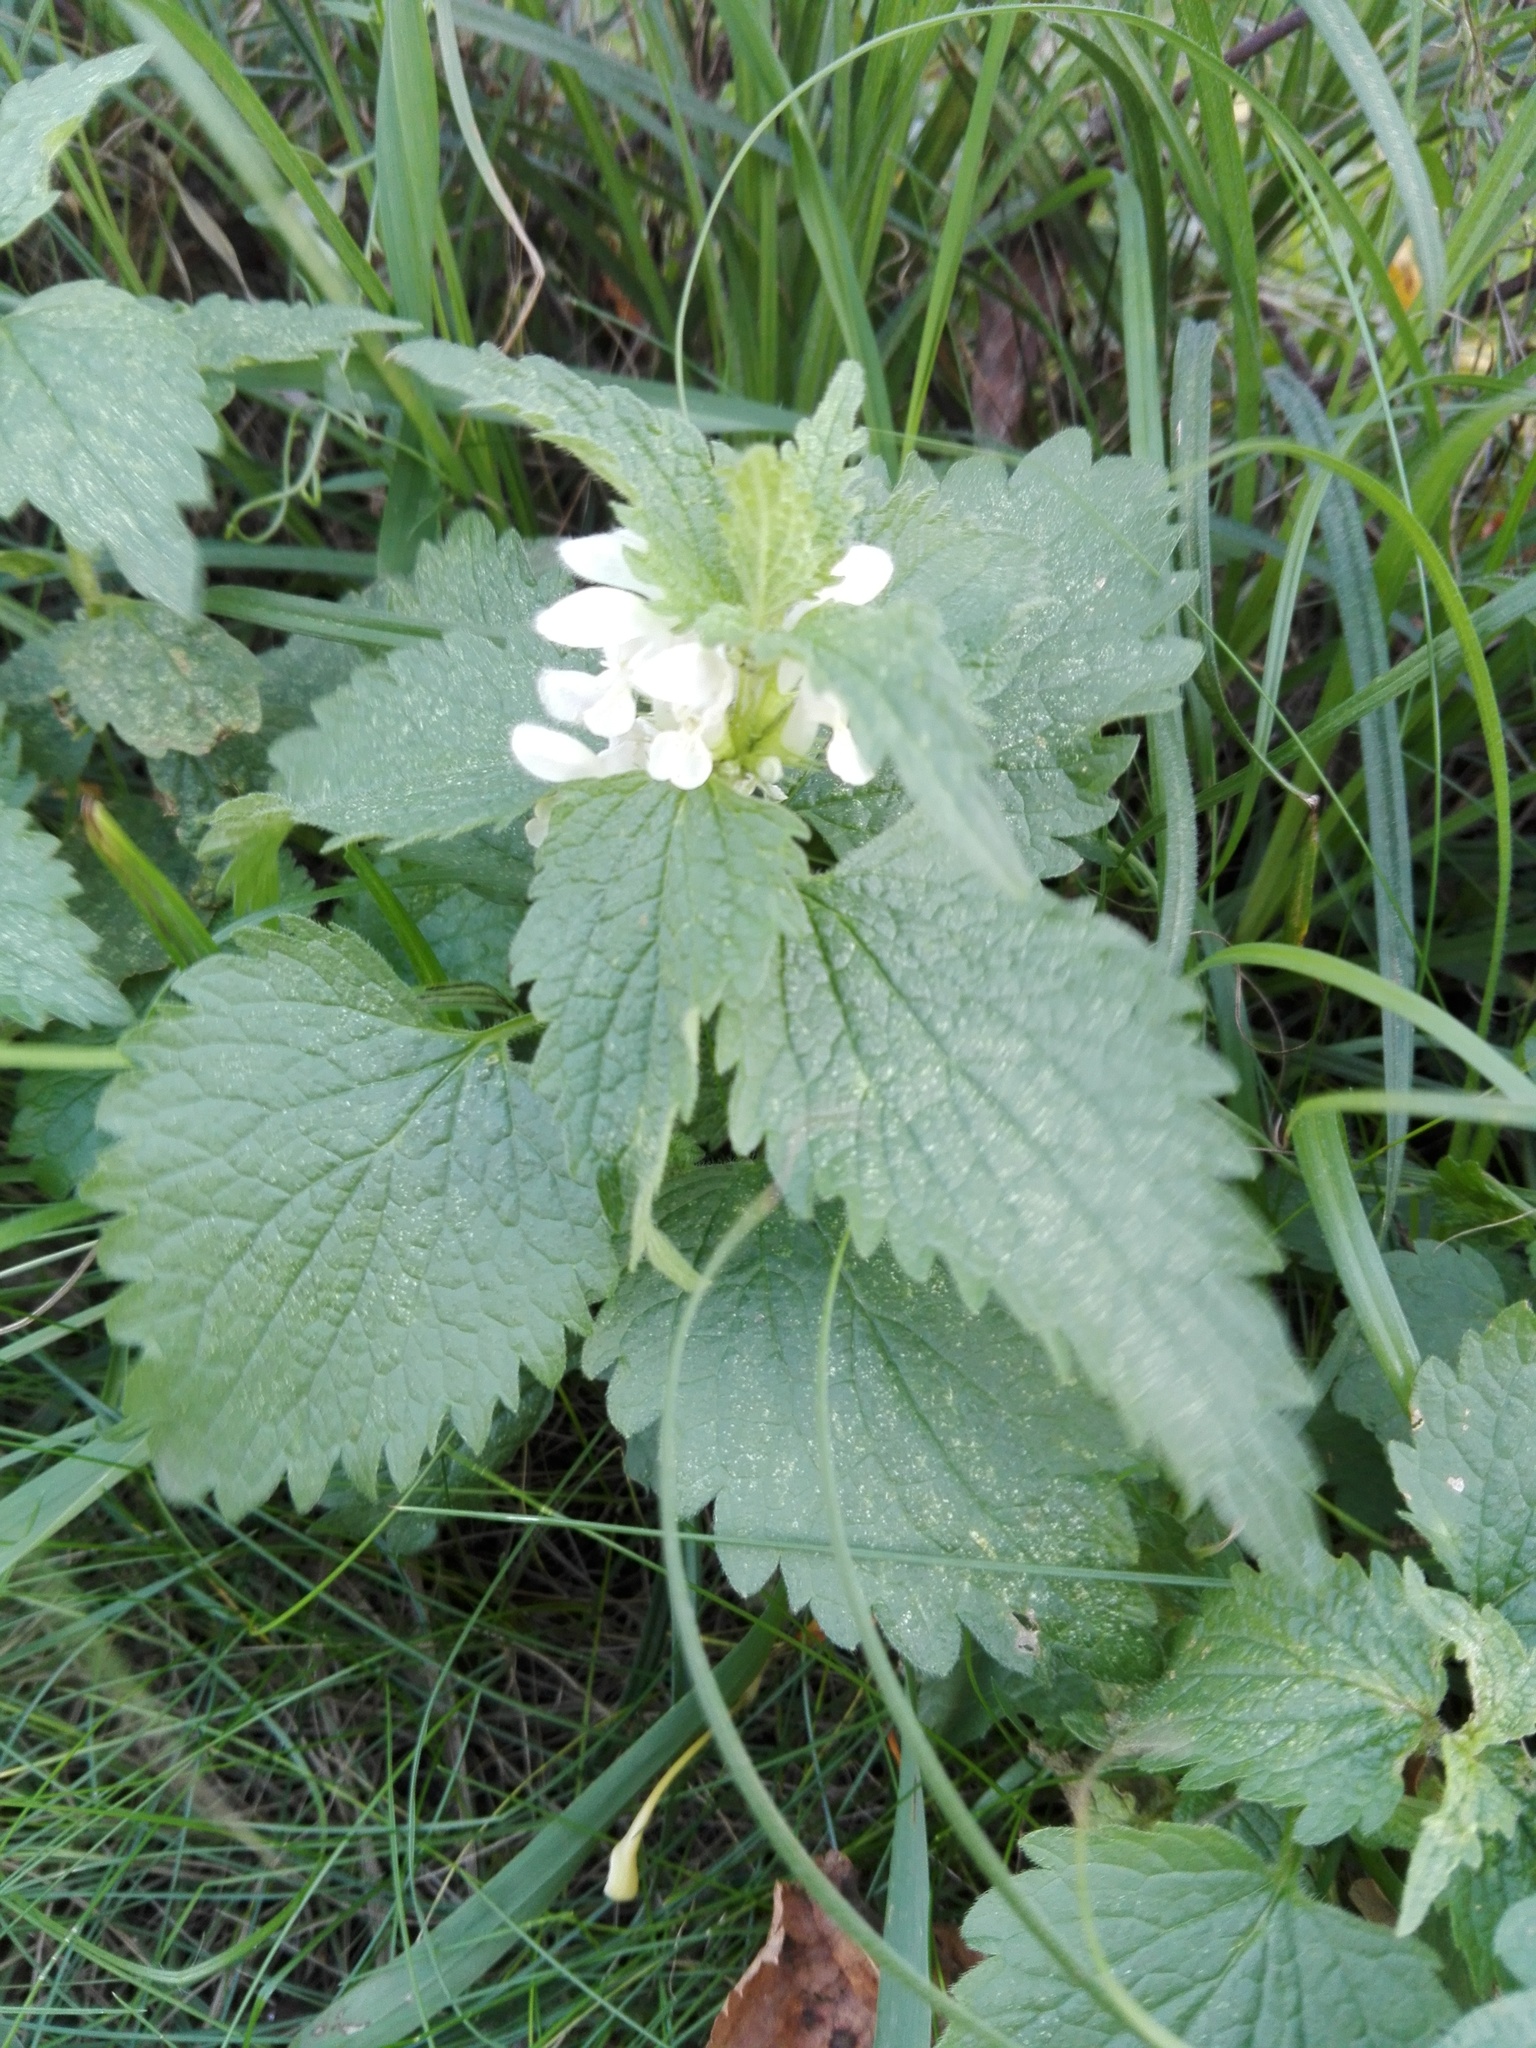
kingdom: Plantae
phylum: Tracheophyta
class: Magnoliopsida
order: Lamiales
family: Lamiaceae
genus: Lamium
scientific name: Lamium album
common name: White dead-nettle
